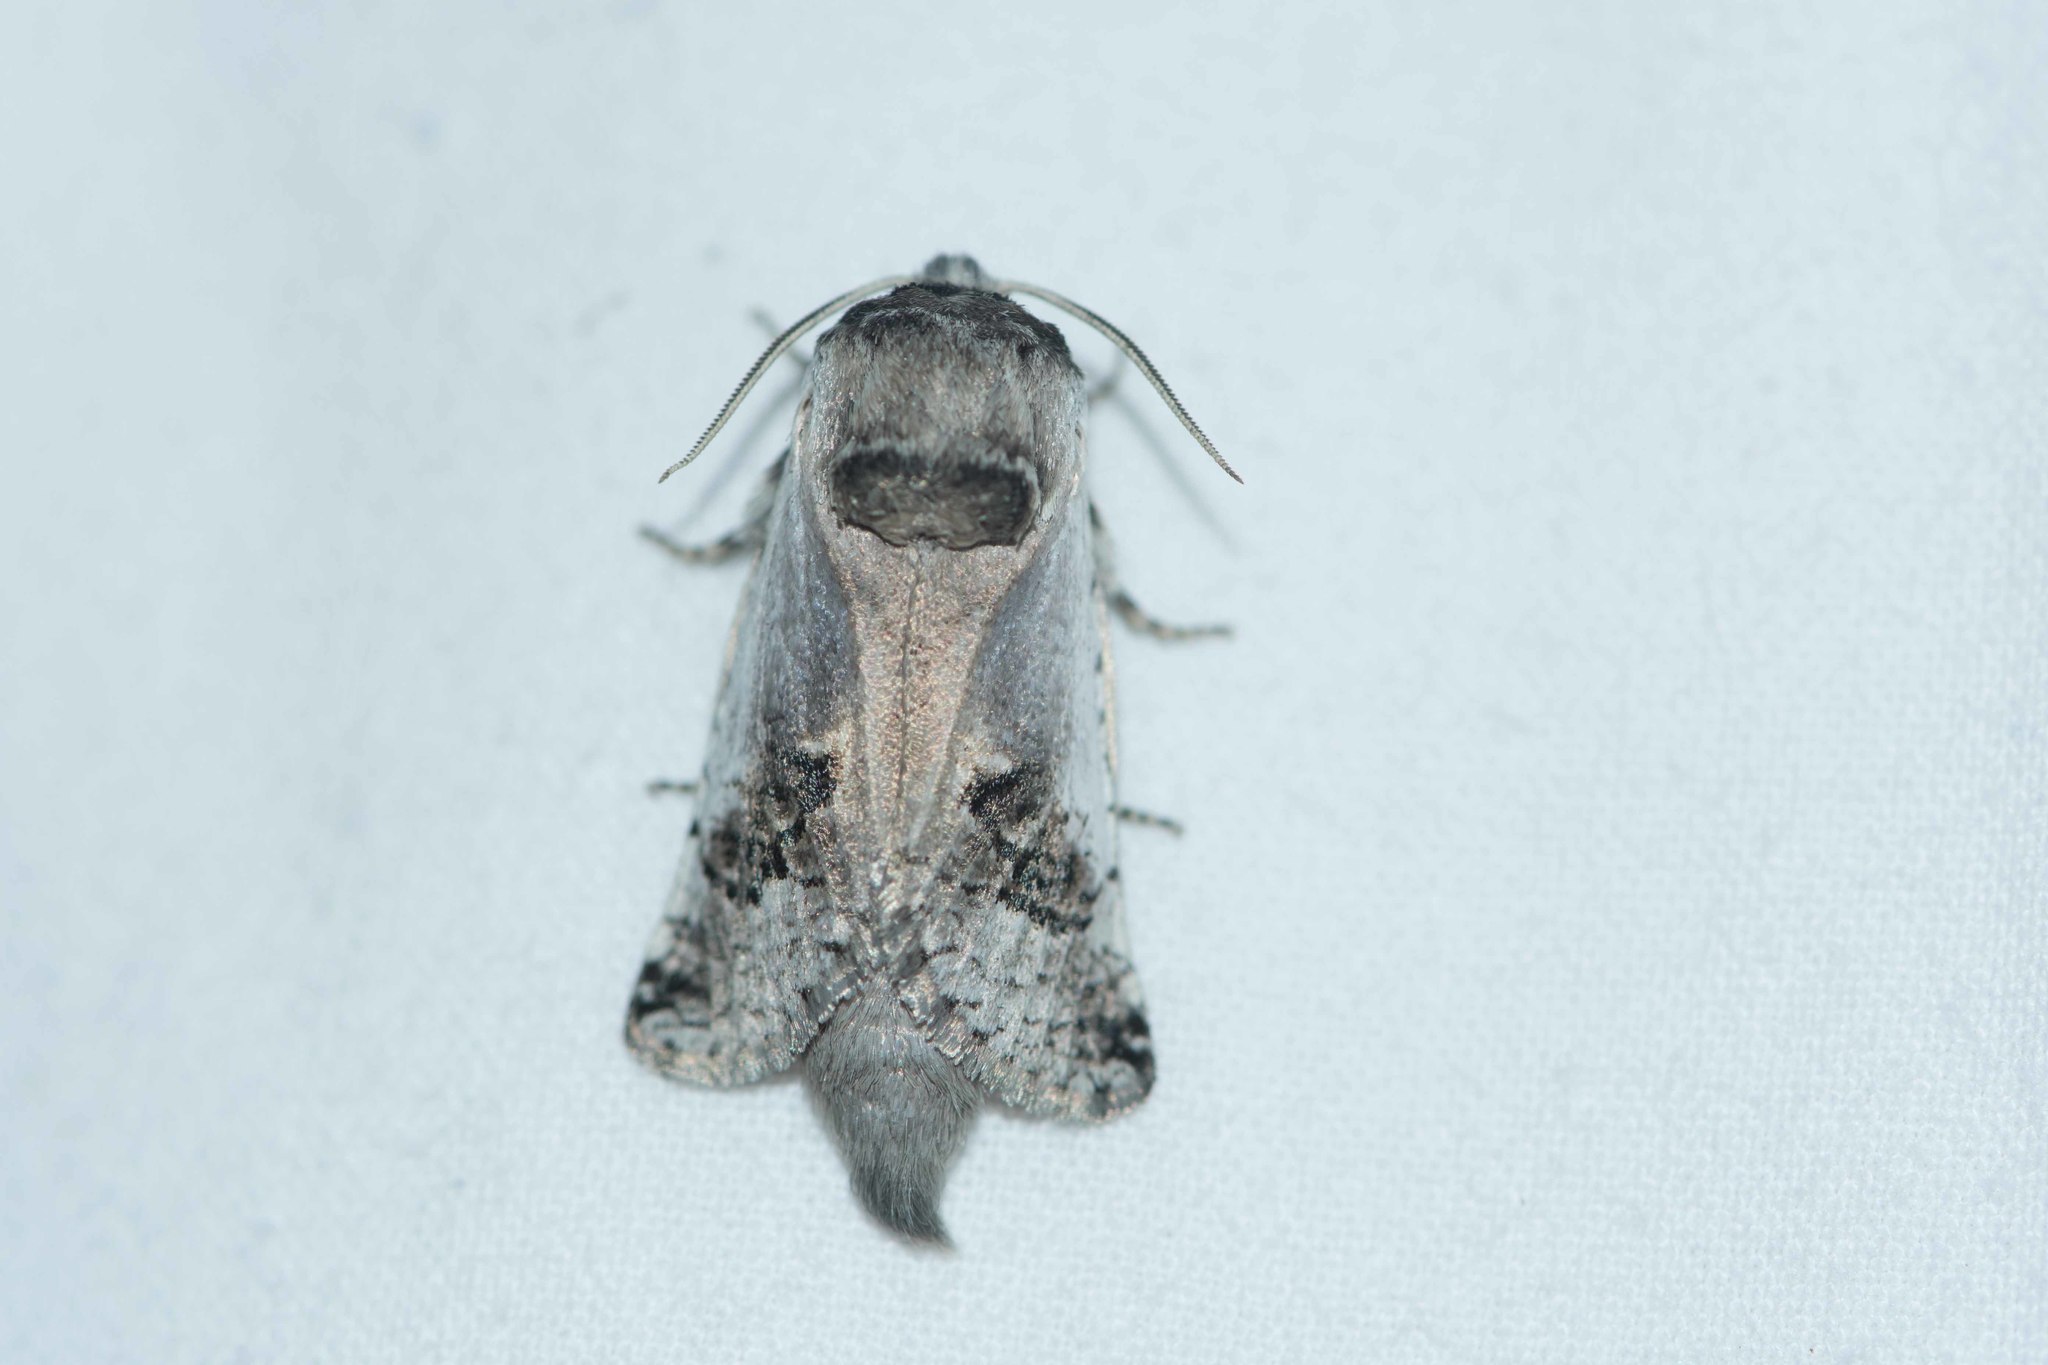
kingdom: Animalia
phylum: Arthropoda
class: Insecta
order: Lepidoptera
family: Cossidae
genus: Parahypopta
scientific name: Parahypopta caestrum
